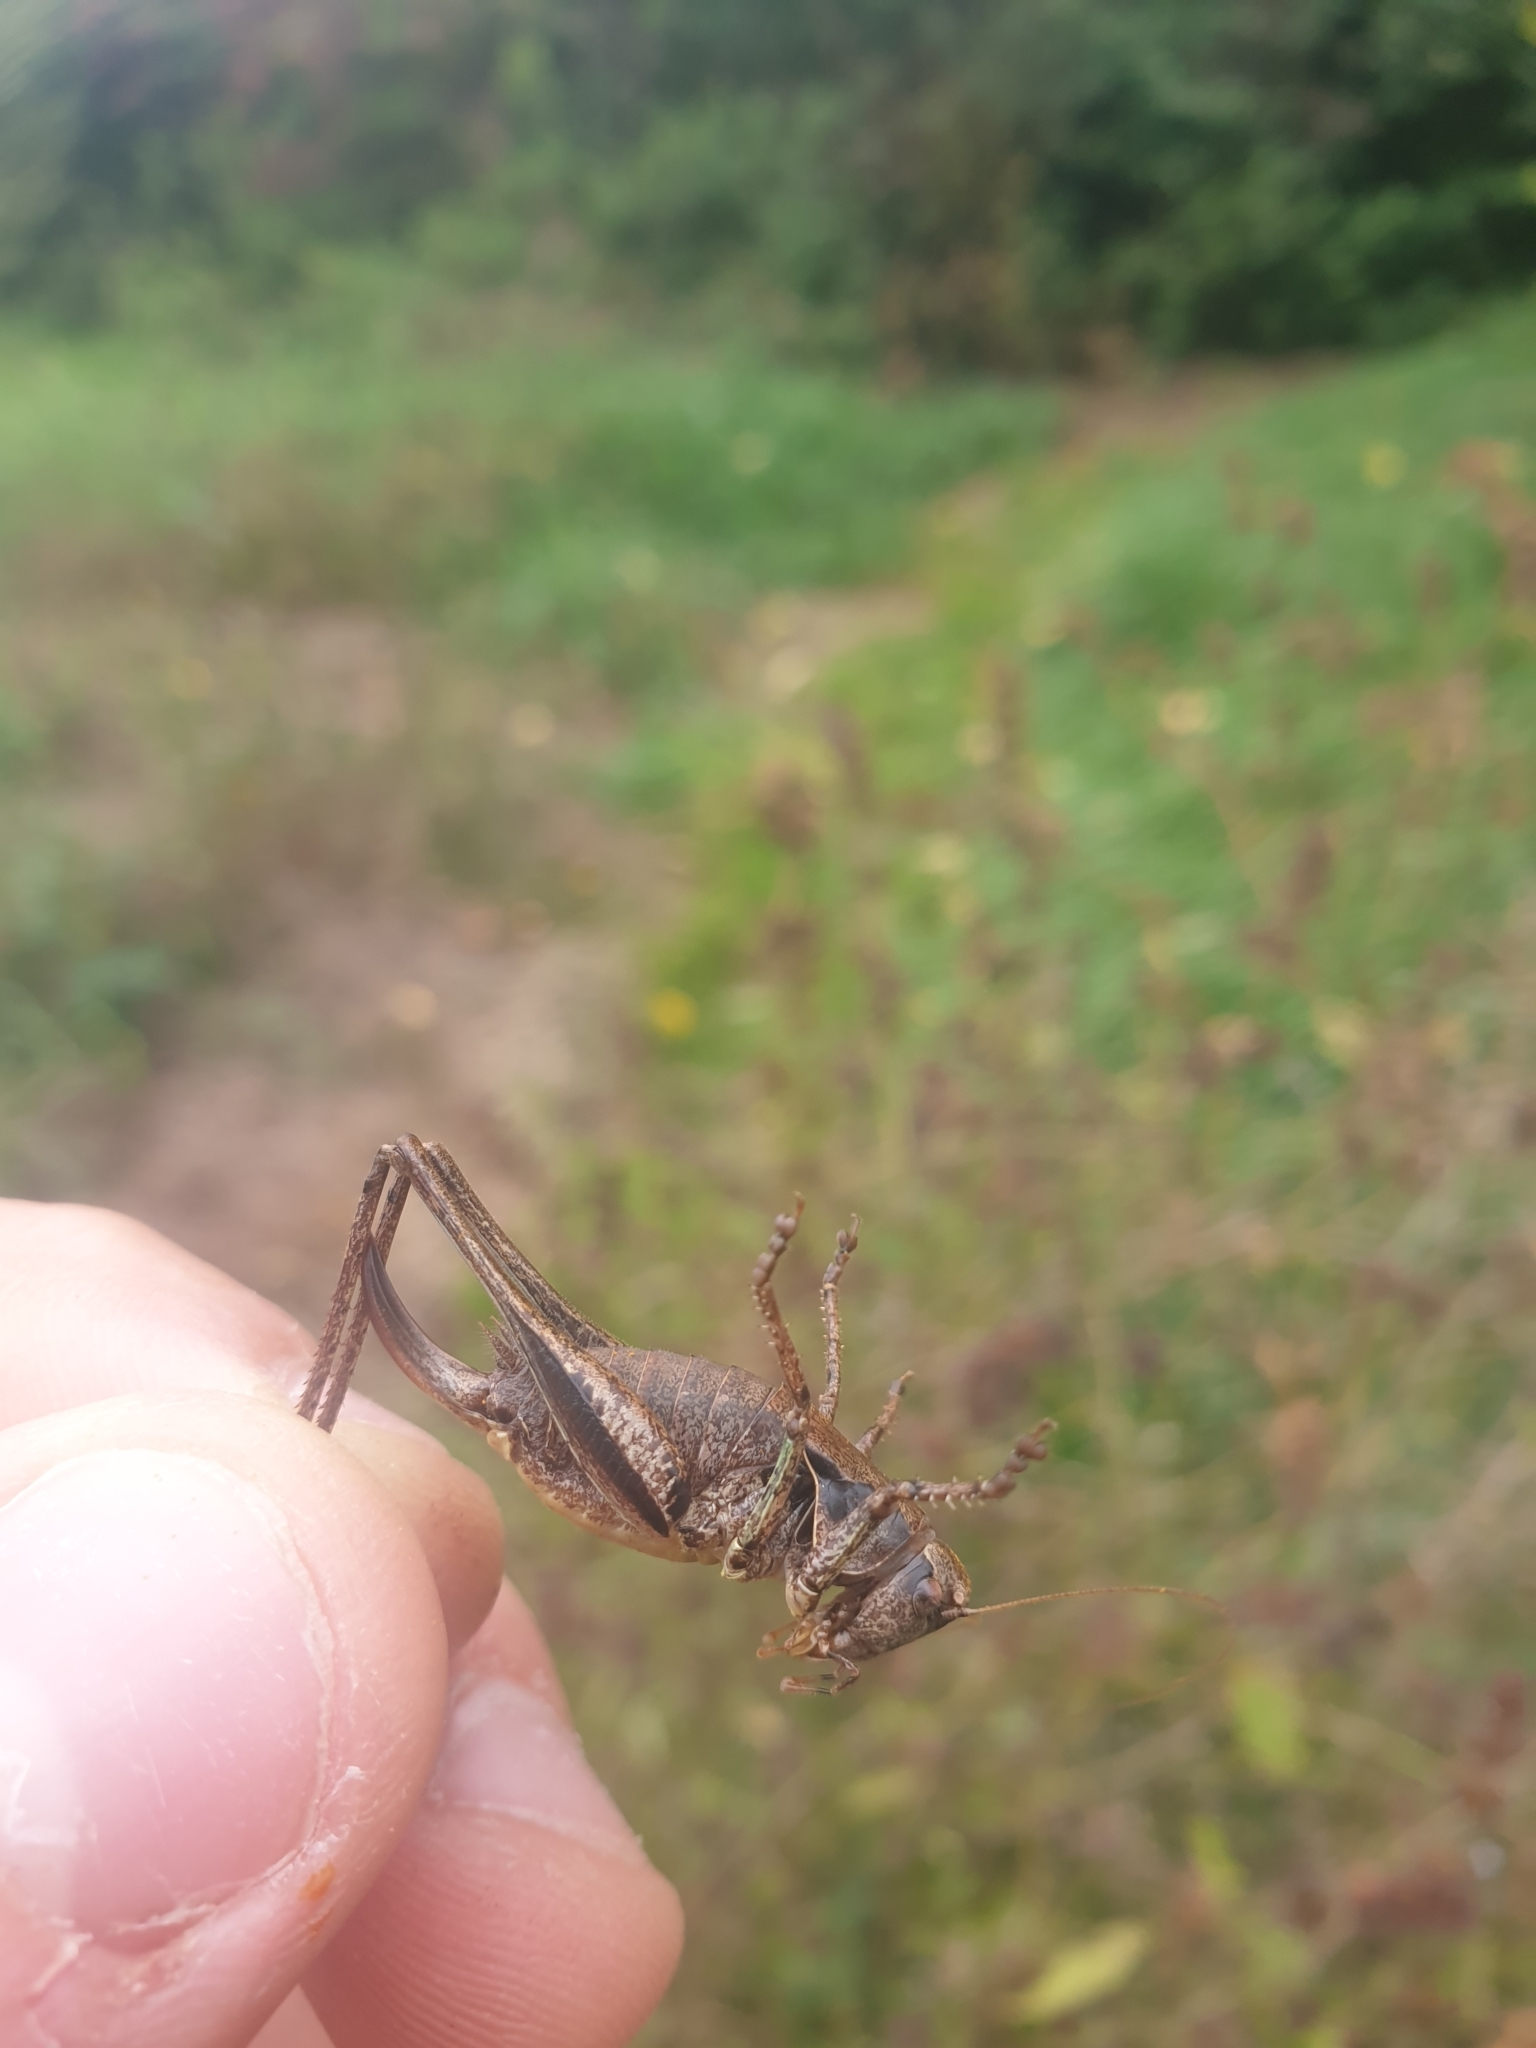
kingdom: Animalia
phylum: Arthropoda
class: Insecta
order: Orthoptera
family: Tettigoniidae
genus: Pholidoptera
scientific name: Pholidoptera griseoaptera
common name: Dark bush-cricket
